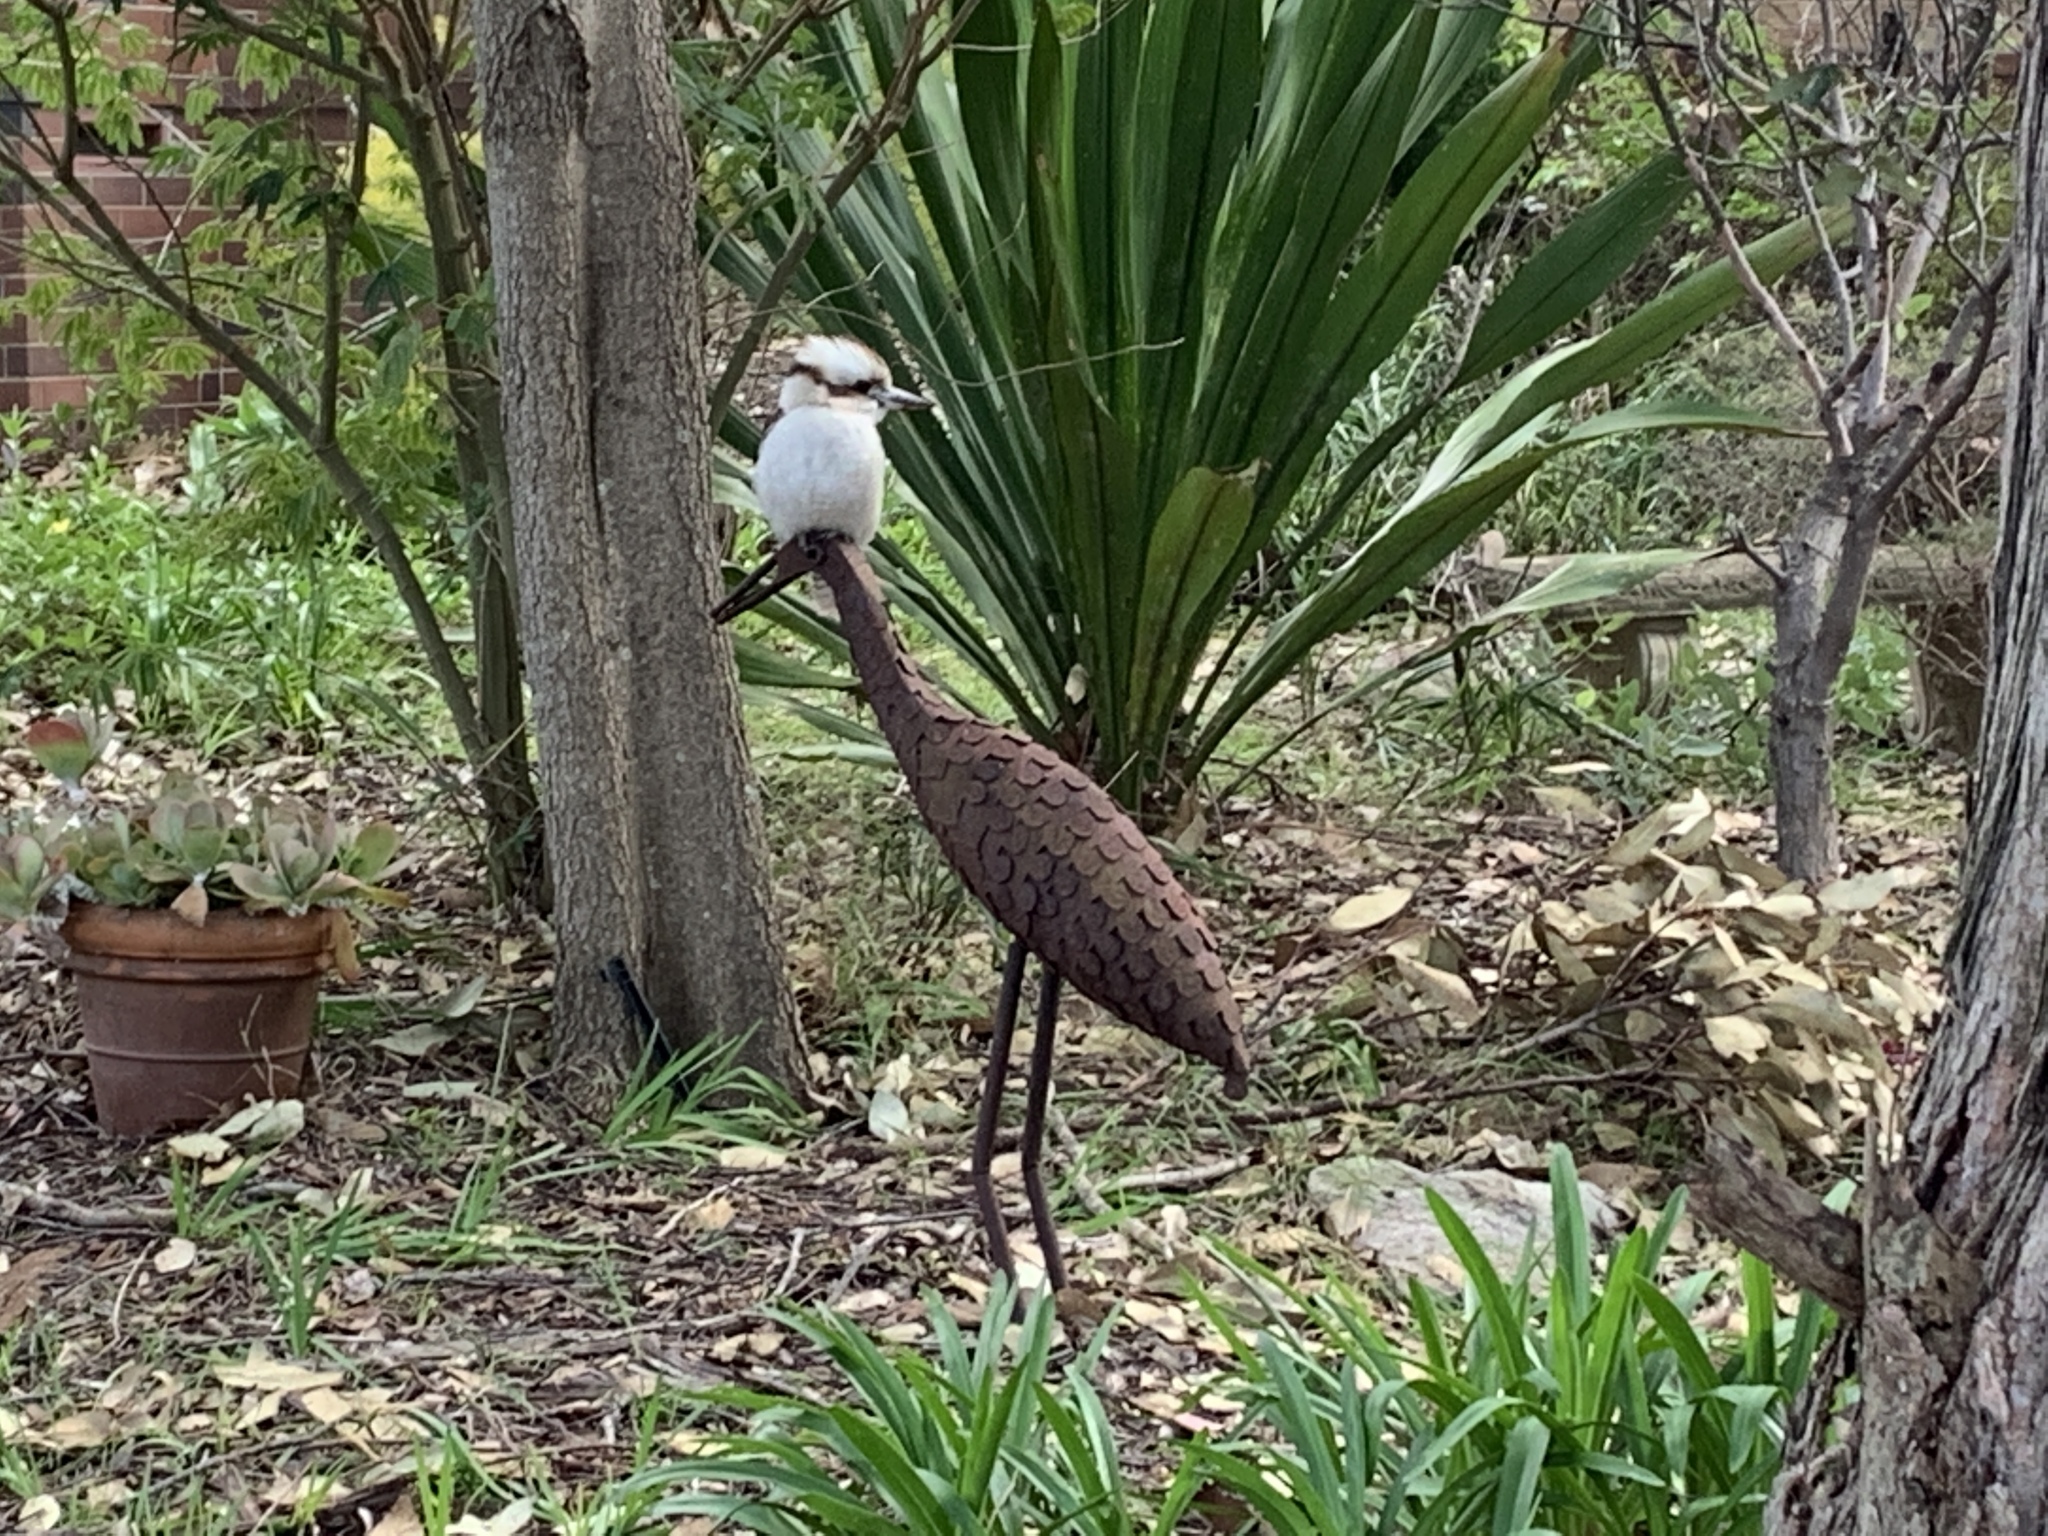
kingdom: Animalia
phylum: Chordata
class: Aves
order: Coraciiformes
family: Alcedinidae
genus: Dacelo
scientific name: Dacelo novaeguineae
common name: Laughing kookaburra
